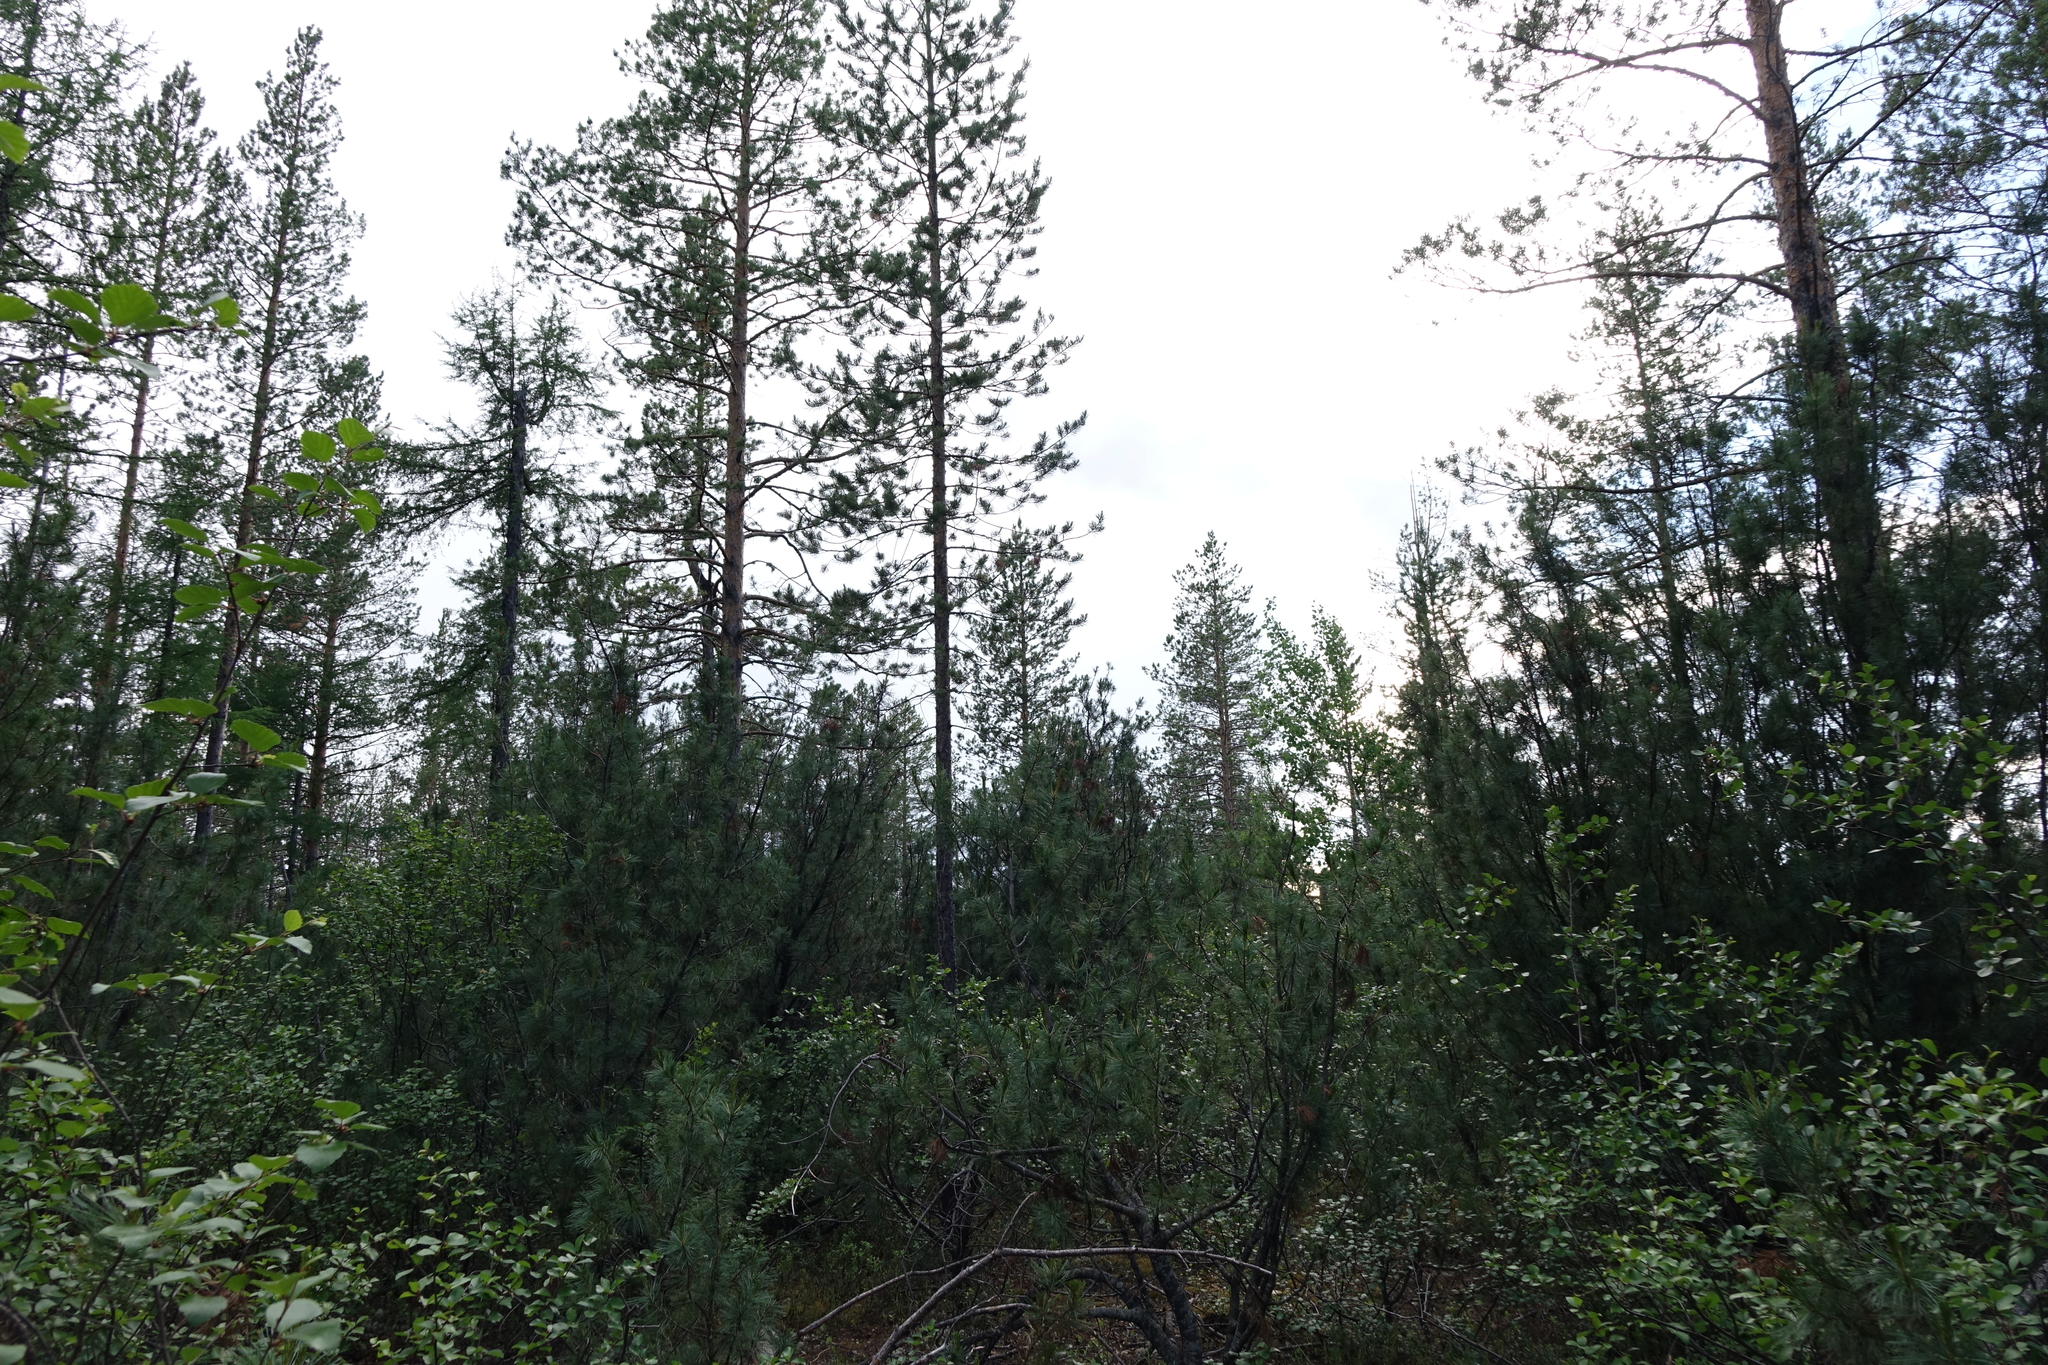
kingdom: Plantae
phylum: Tracheophyta
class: Pinopsida
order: Pinales
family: Pinaceae
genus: Pinus
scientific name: Pinus sylvestris
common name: Scots pine
